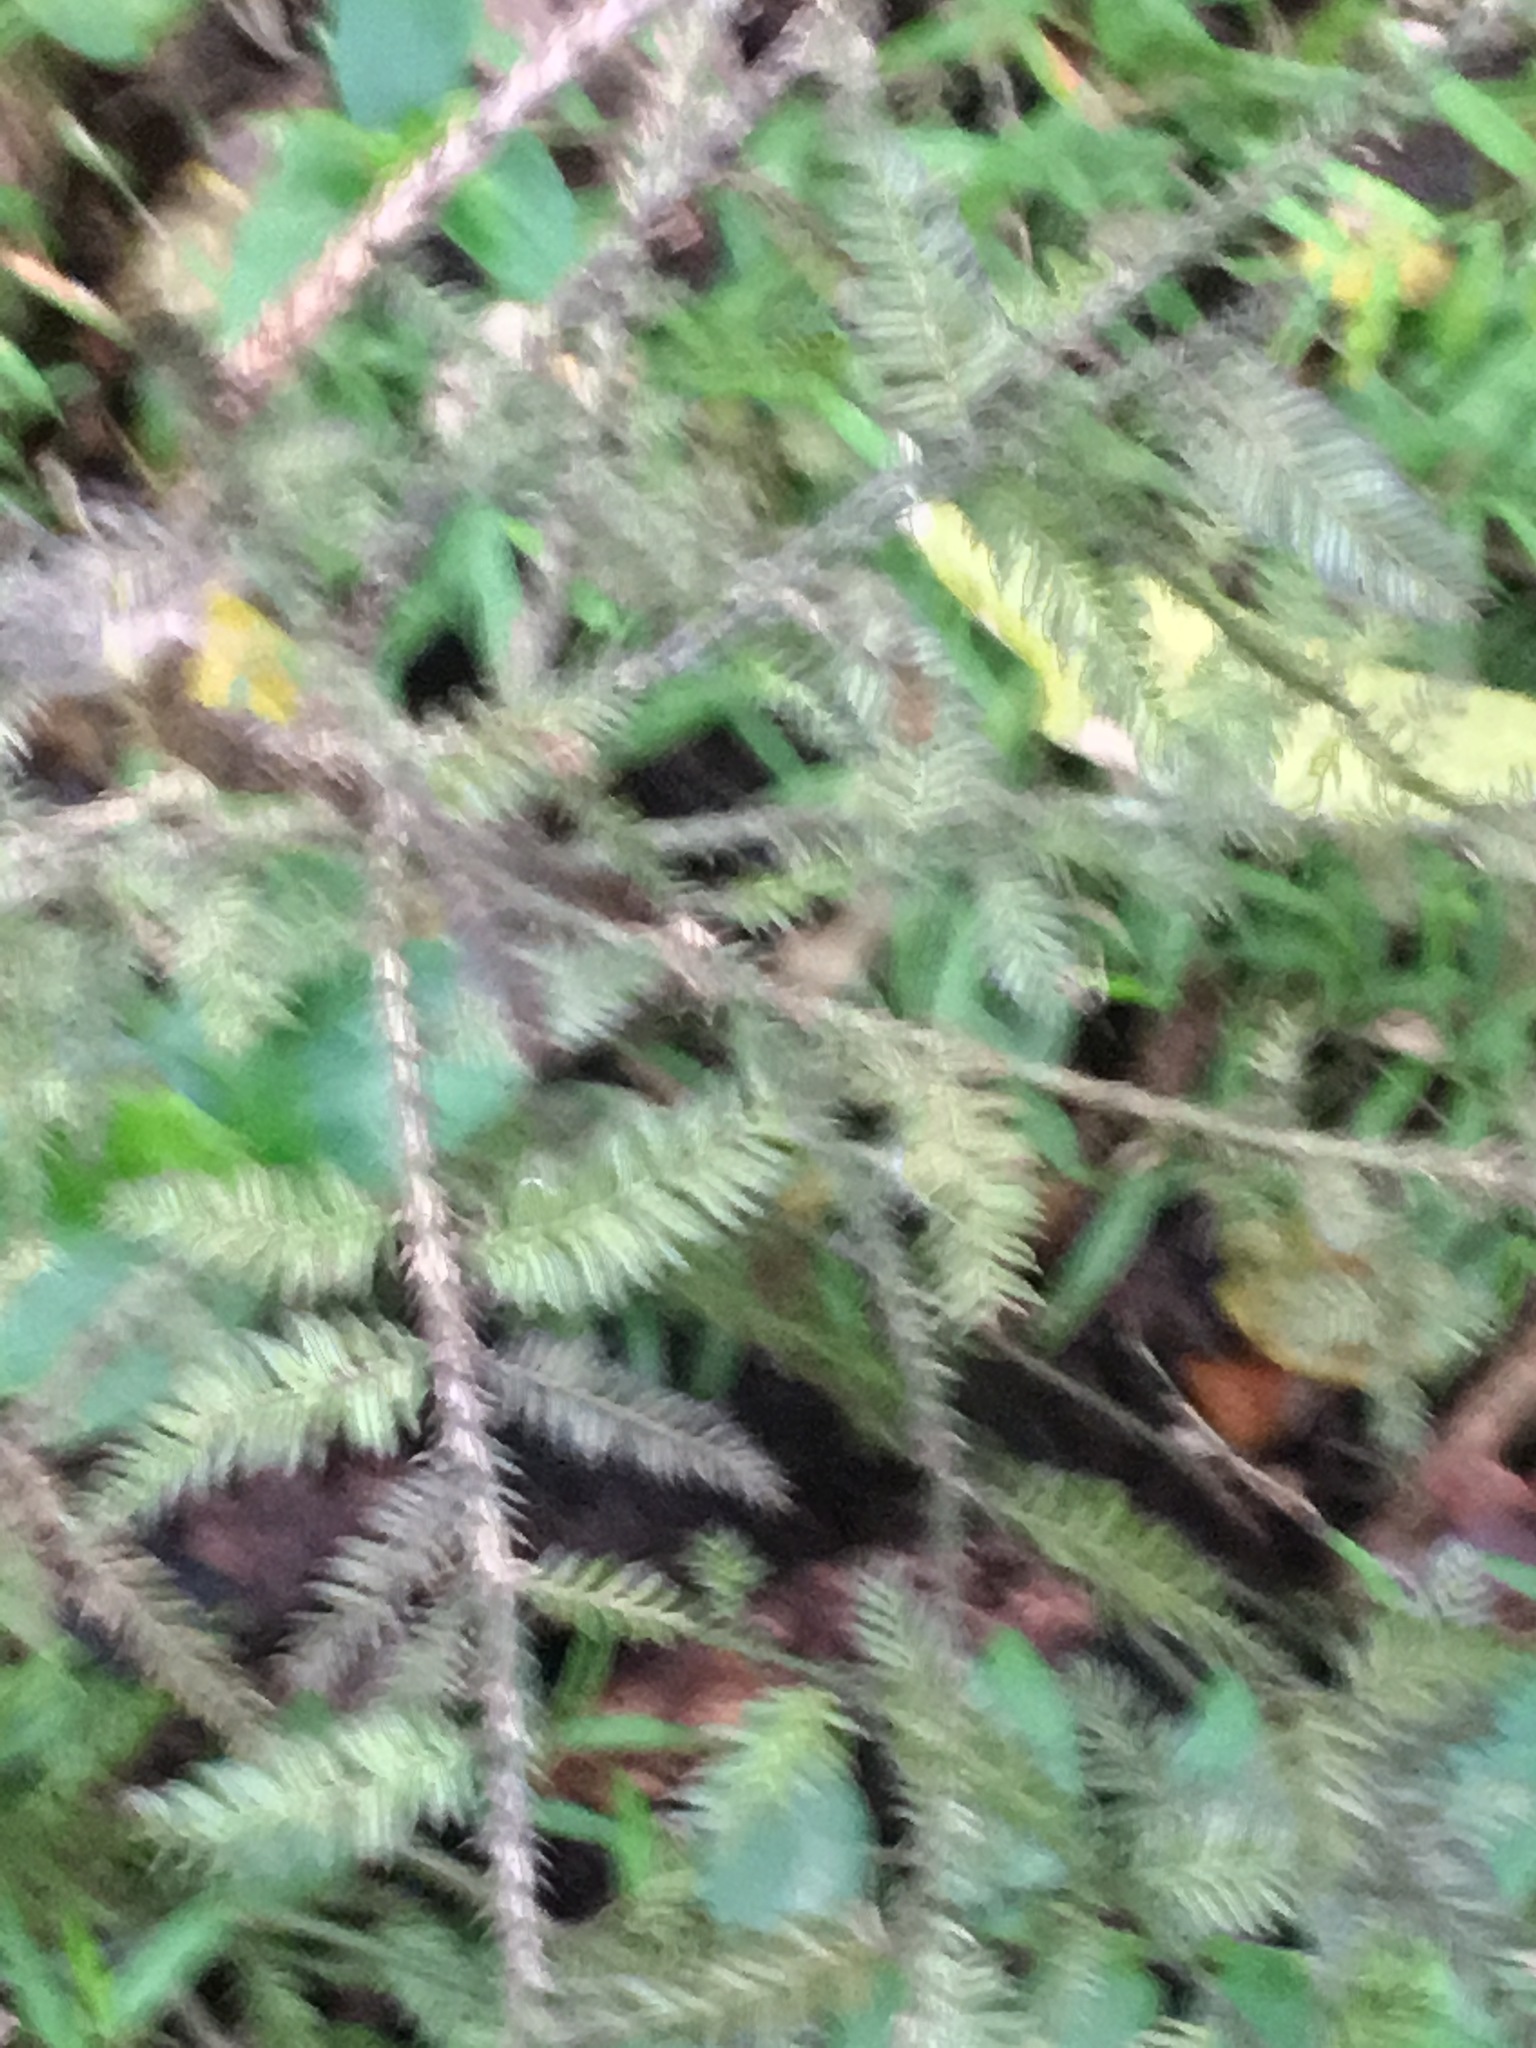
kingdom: Plantae
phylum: Tracheophyta
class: Pinopsida
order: Pinales
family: Podocarpaceae
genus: Dacrycarpus
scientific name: Dacrycarpus dacrydioides
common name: White pine
